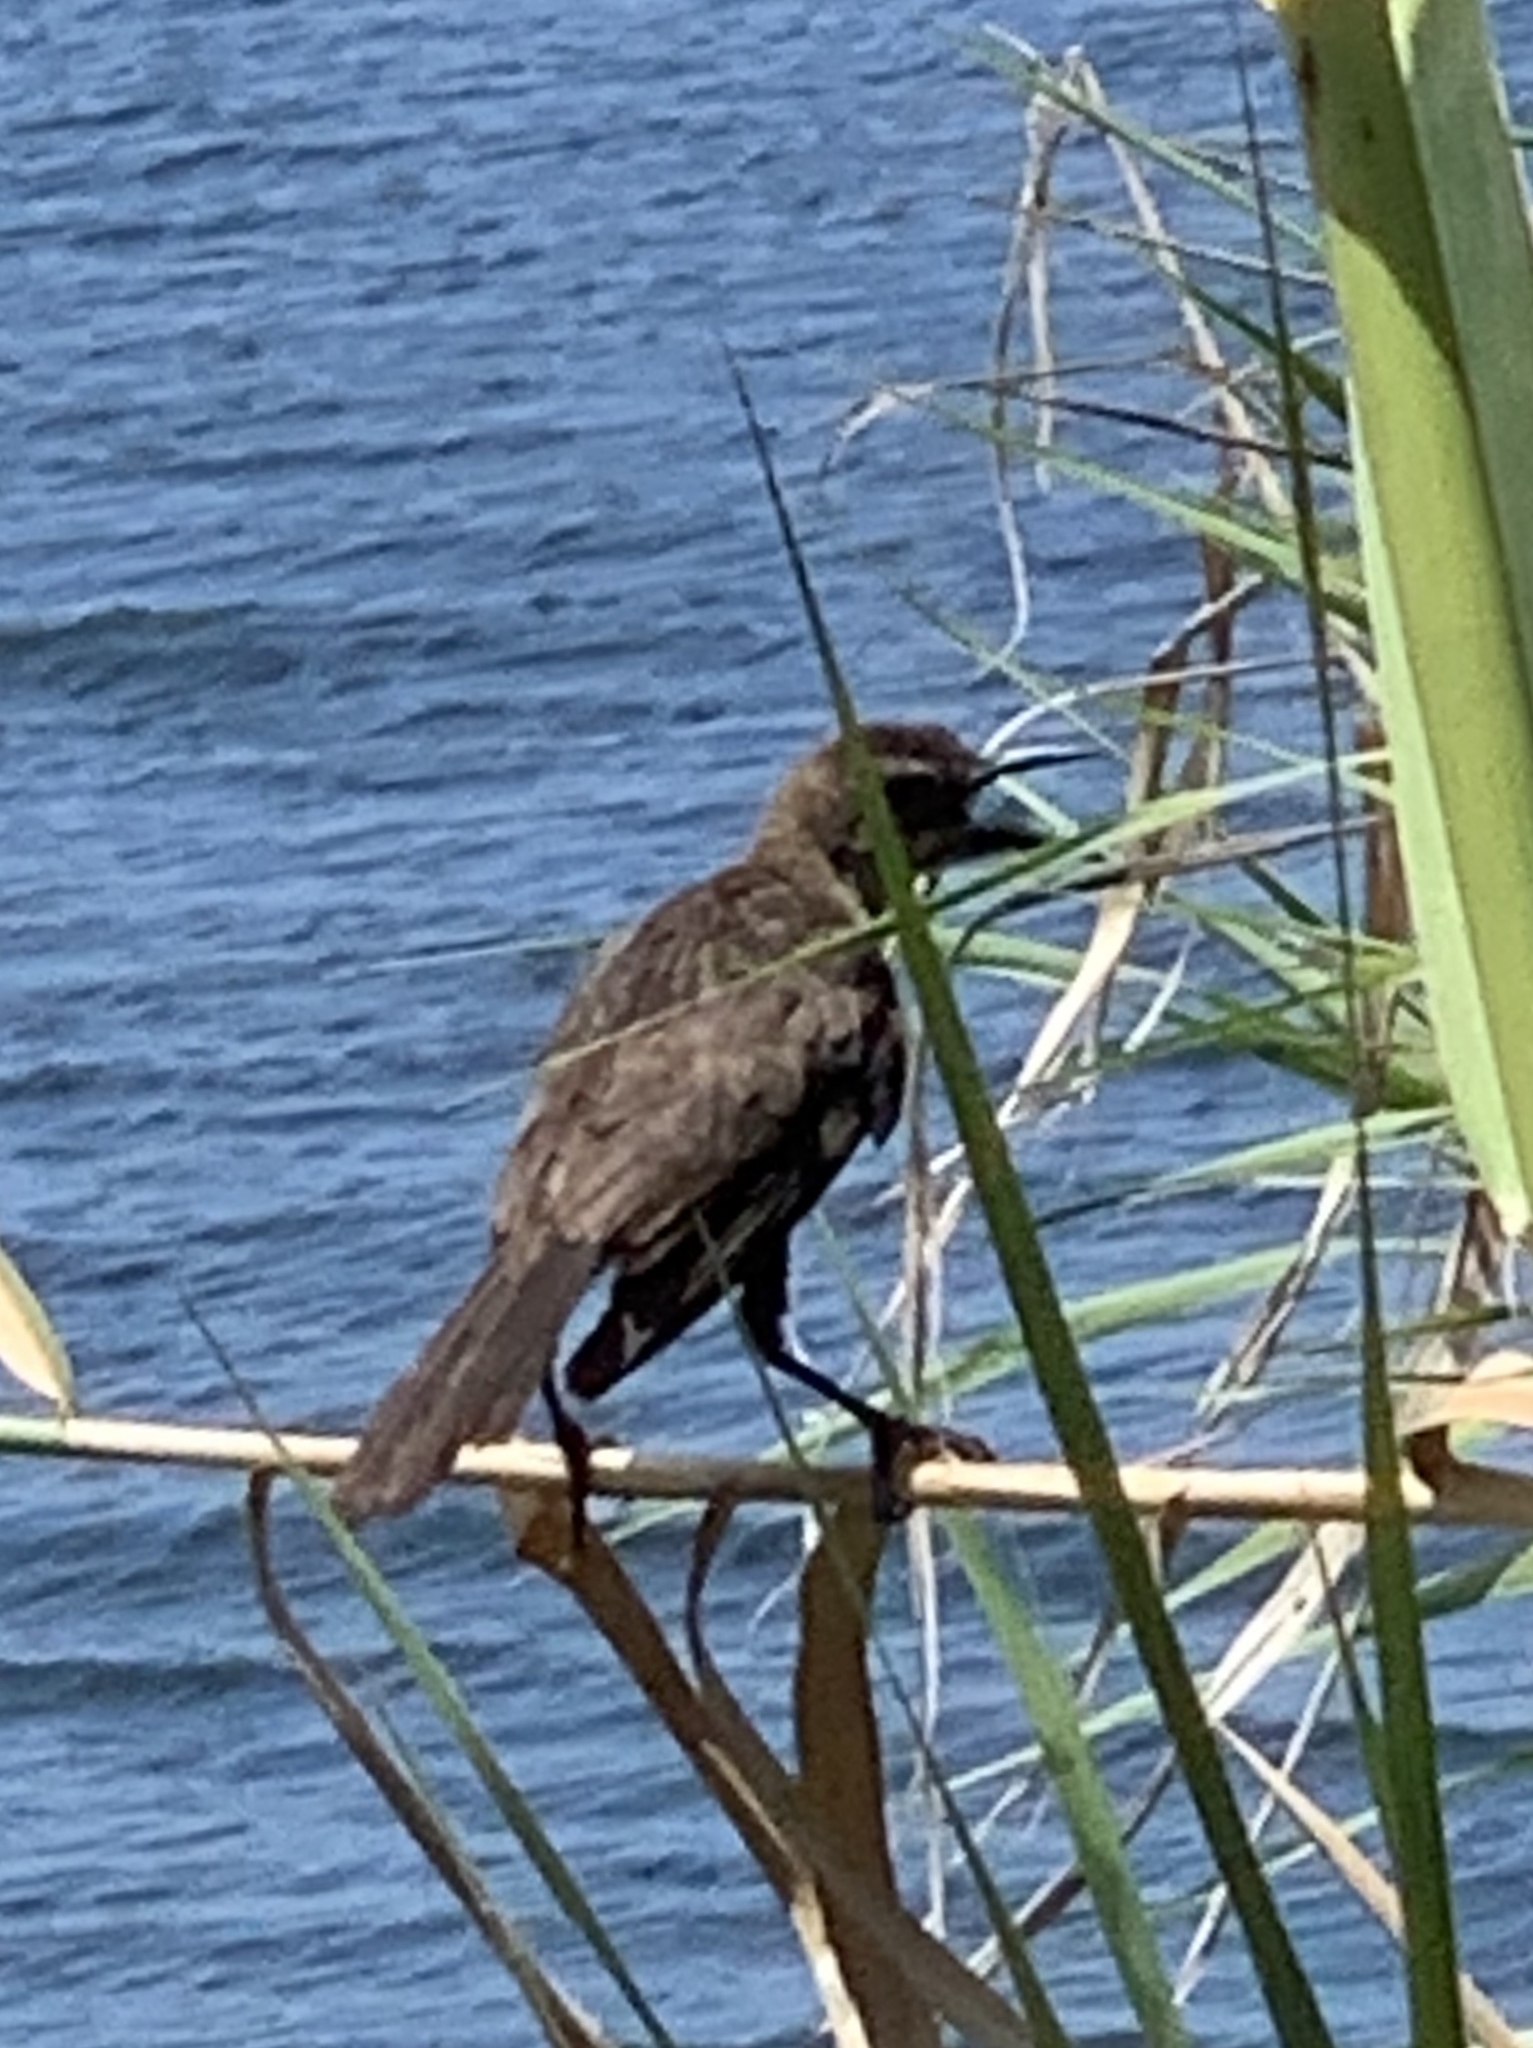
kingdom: Animalia
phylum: Chordata
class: Aves
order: Passeriformes
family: Icteridae
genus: Quiscalus
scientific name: Quiscalus major
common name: Boat-tailed grackle
